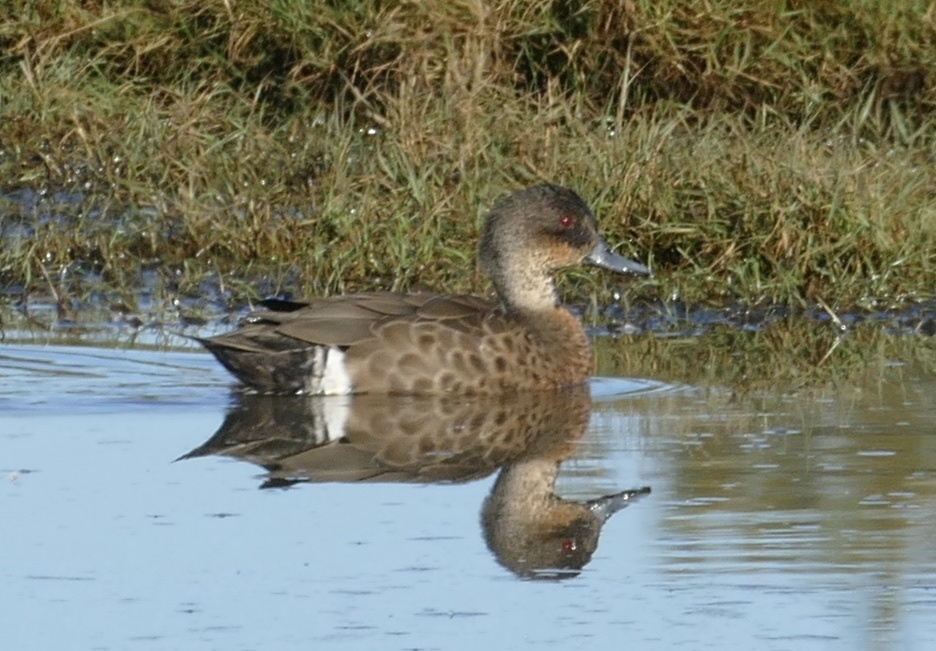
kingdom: Animalia
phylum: Chordata
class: Aves
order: Anseriformes
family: Anatidae
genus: Anas
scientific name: Anas castanea
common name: Chestnut teal
